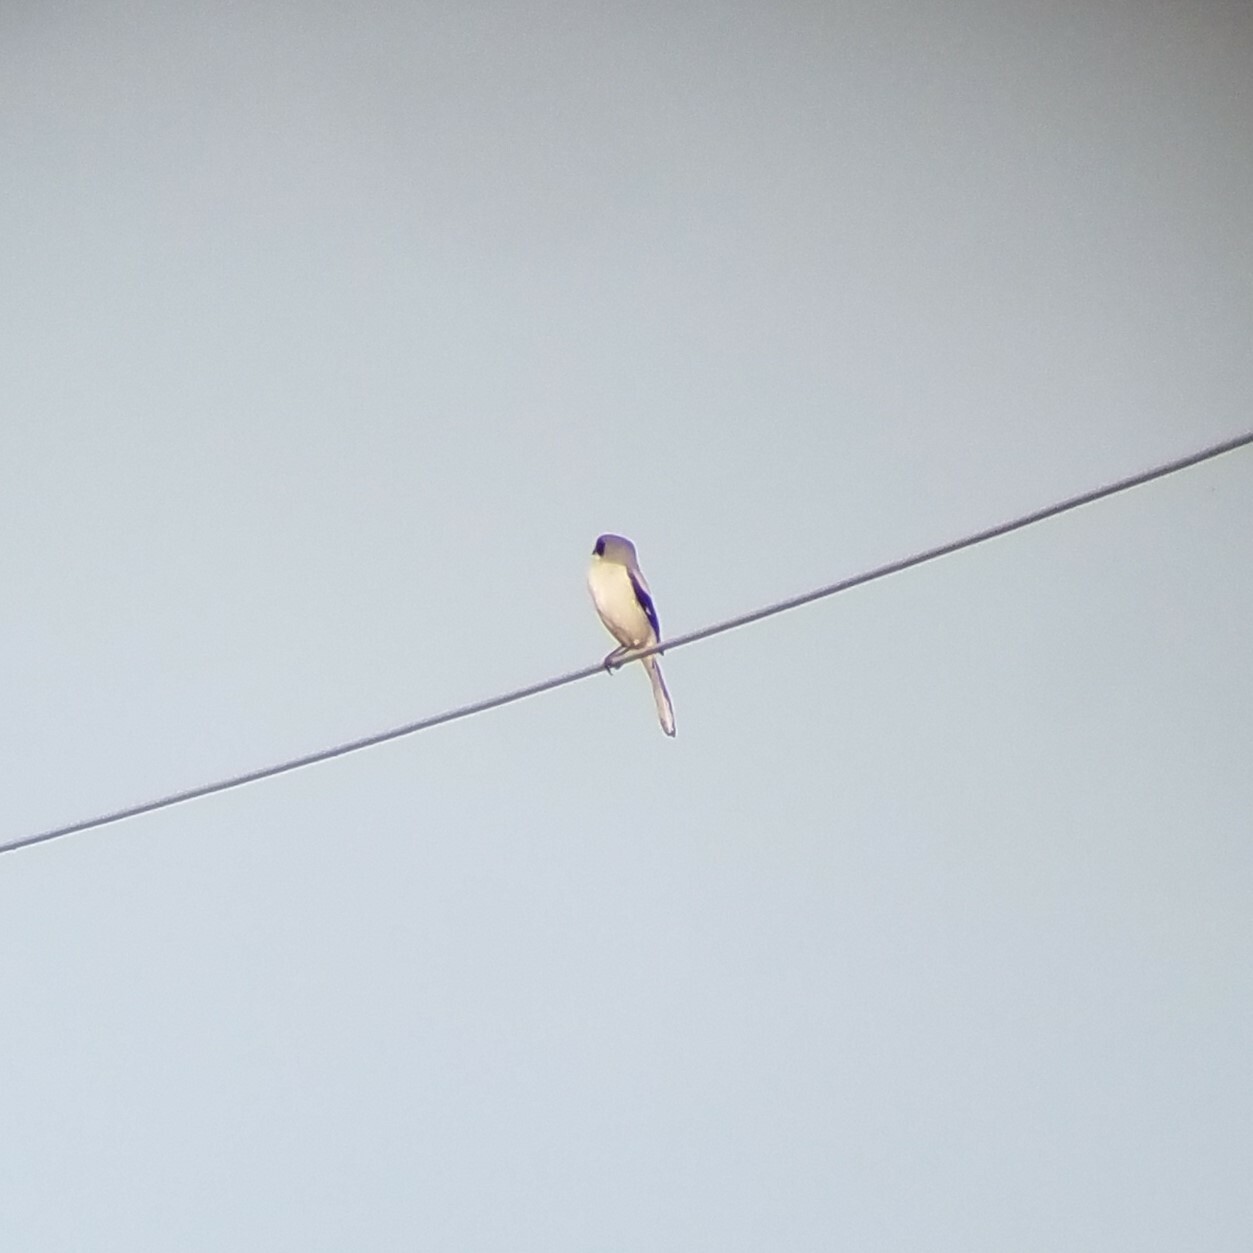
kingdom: Animalia
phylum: Chordata
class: Aves
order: Passeriformes
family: Laniidae
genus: Lanius
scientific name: Lanius ludovicianus
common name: Loggerhead shrike
